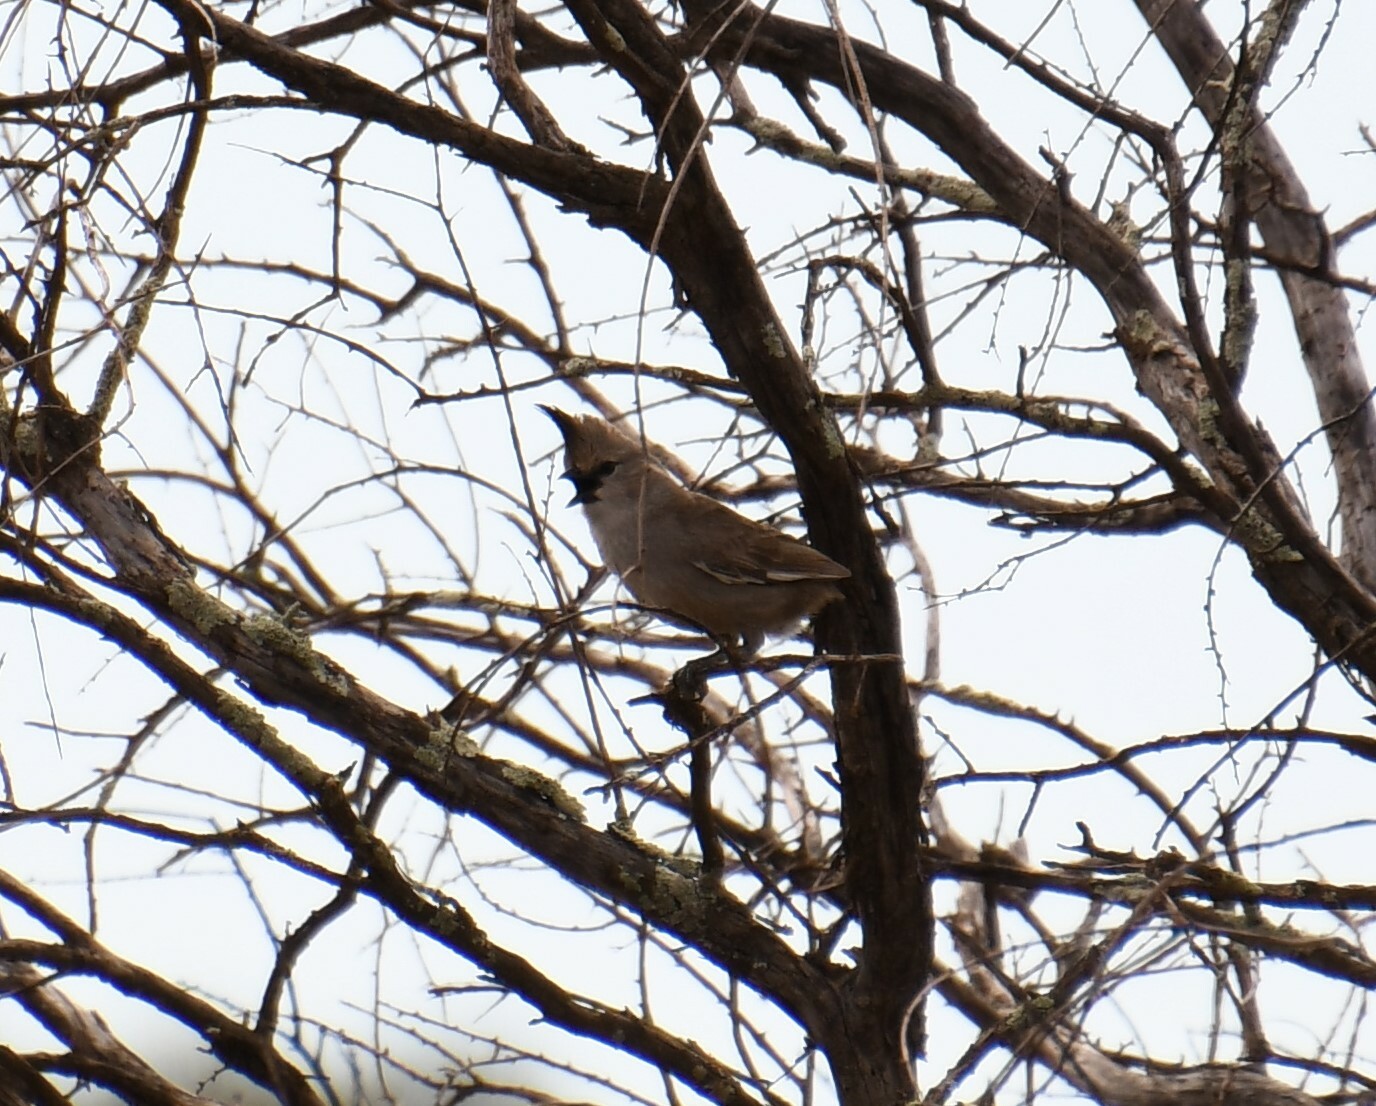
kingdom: Animalia
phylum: Chordata
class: Aves
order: Passeriformes
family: Psophodidae
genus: Psophodes
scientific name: Psophodes occidentalis
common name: Chiming wedgebill
